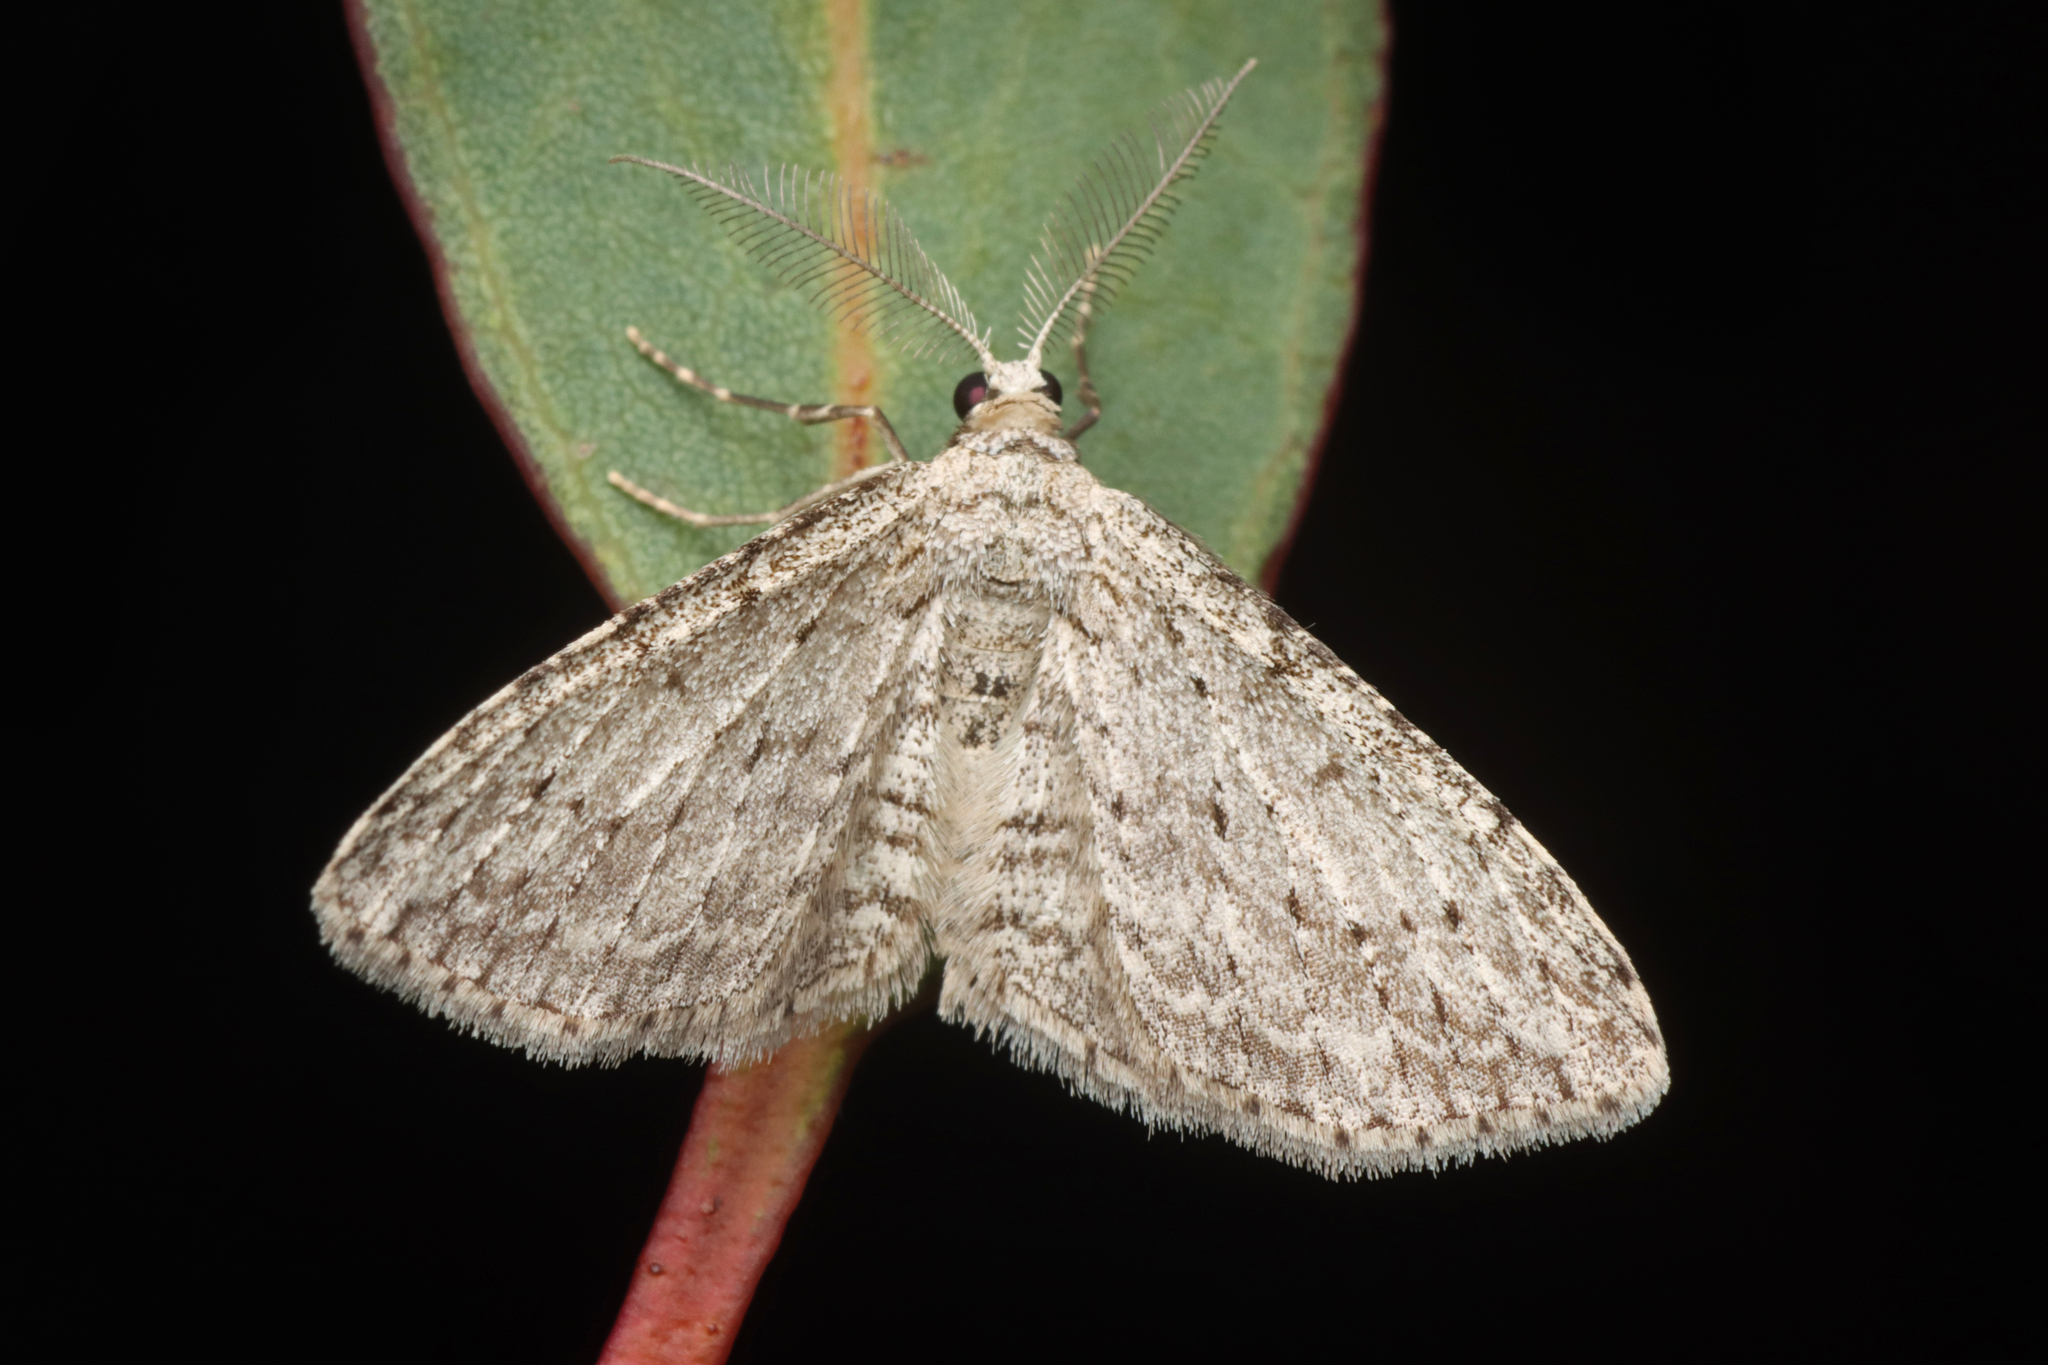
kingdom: Animalia
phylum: Arthropoda
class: Insecta
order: Lepidoptera
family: Geometridae
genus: Phelotis
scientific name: Phelotis cognata
